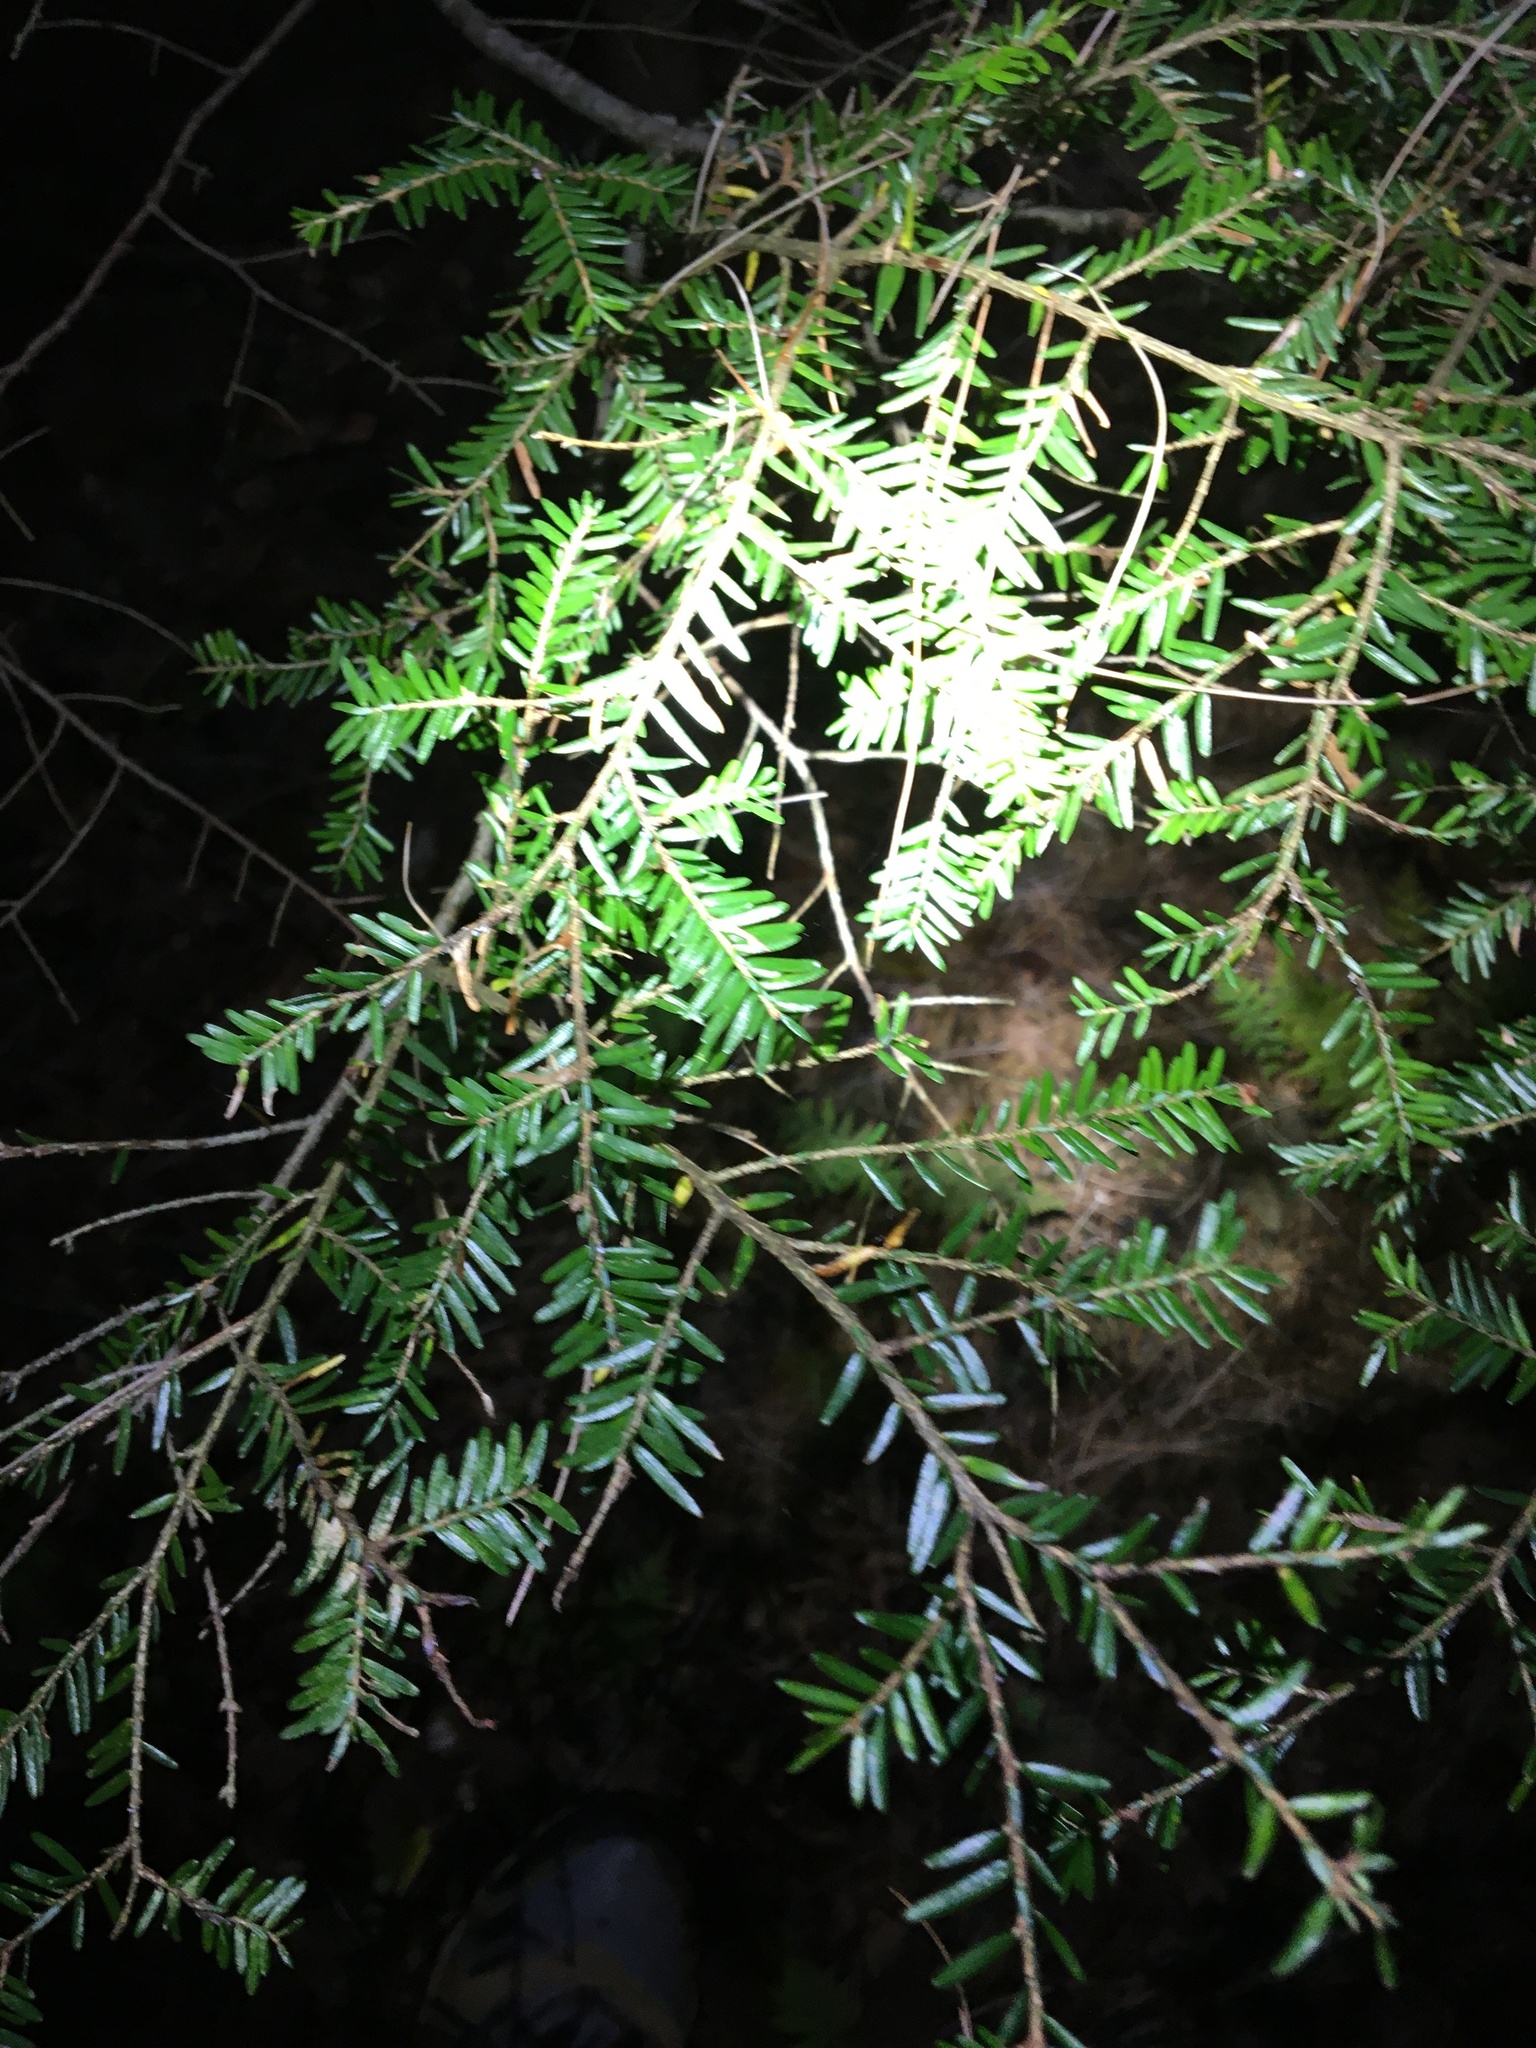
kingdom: Plantae
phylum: Tracheophyta
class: Pinopsida
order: Pinales
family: Pinaceae
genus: Tsuga
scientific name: Tsuga canadensis
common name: Eastern hemlock
